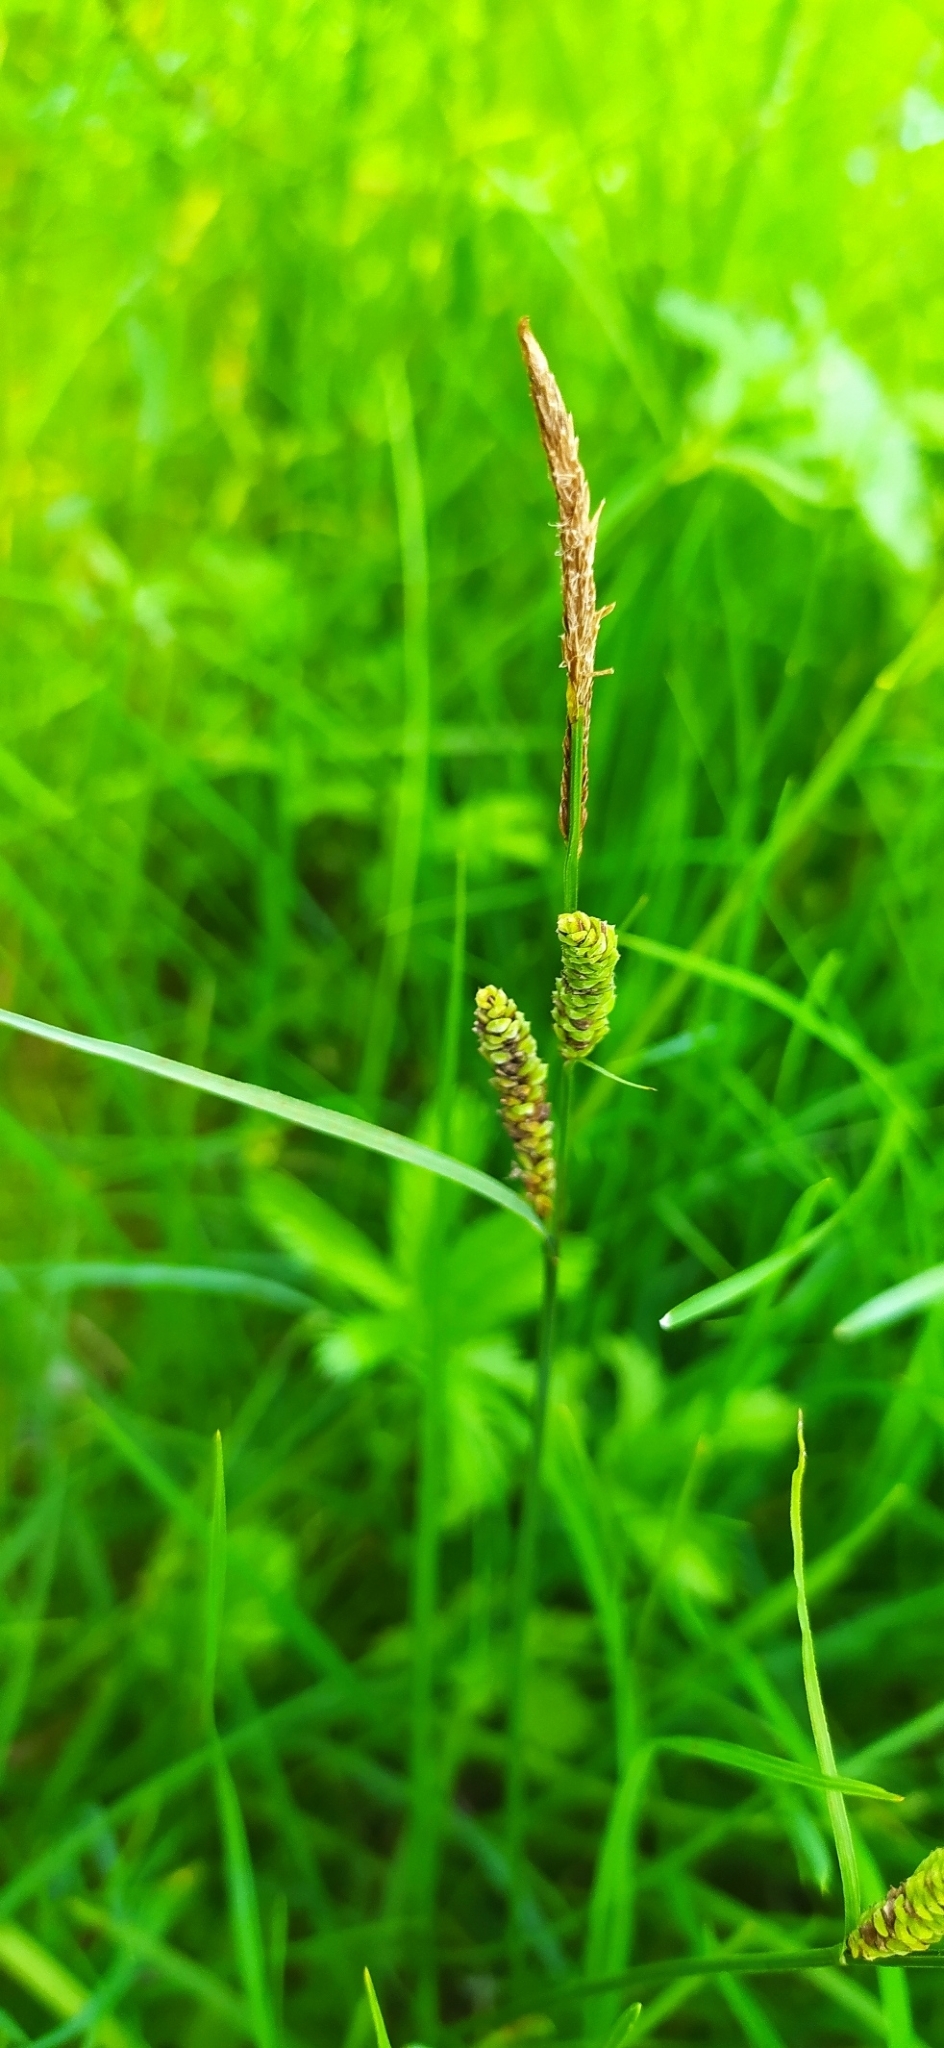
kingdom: Plantae
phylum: Tracheophyta
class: Liliopsida
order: Poales
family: Cyperaceae
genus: Carex
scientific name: Carex nigra
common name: Common sedge
